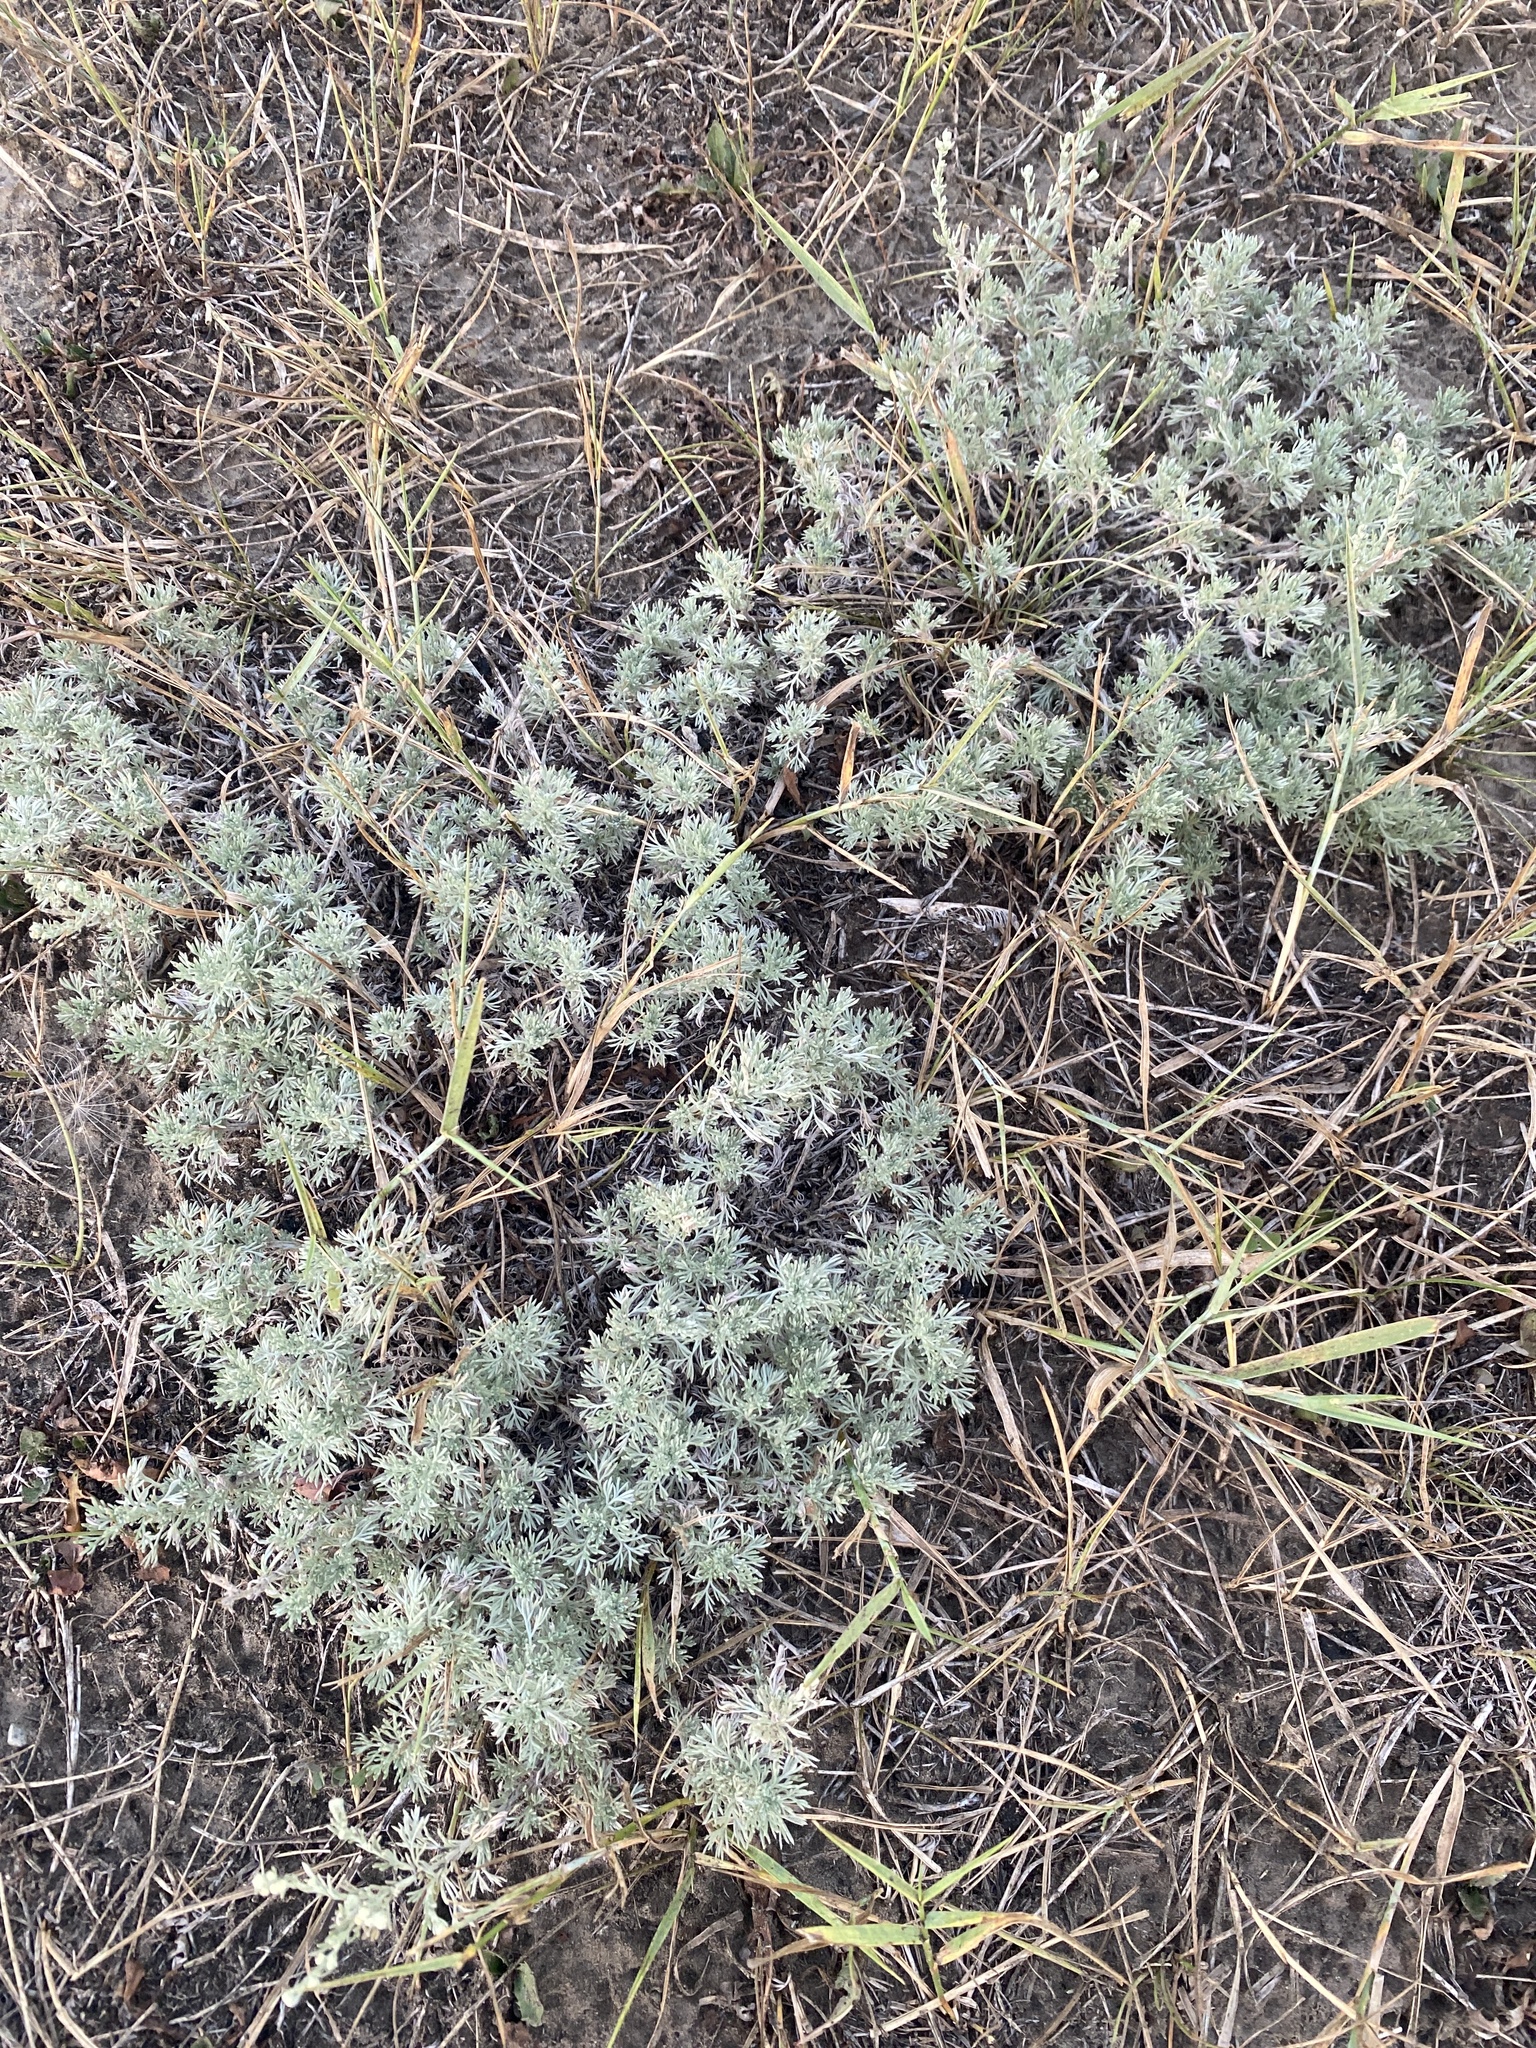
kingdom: Plantae
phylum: Tracheophyta
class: Magnoliopsida
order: Asterales
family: Asteraceae
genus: Artemisia
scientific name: Artemisia frigida
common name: Prairie sagewort
